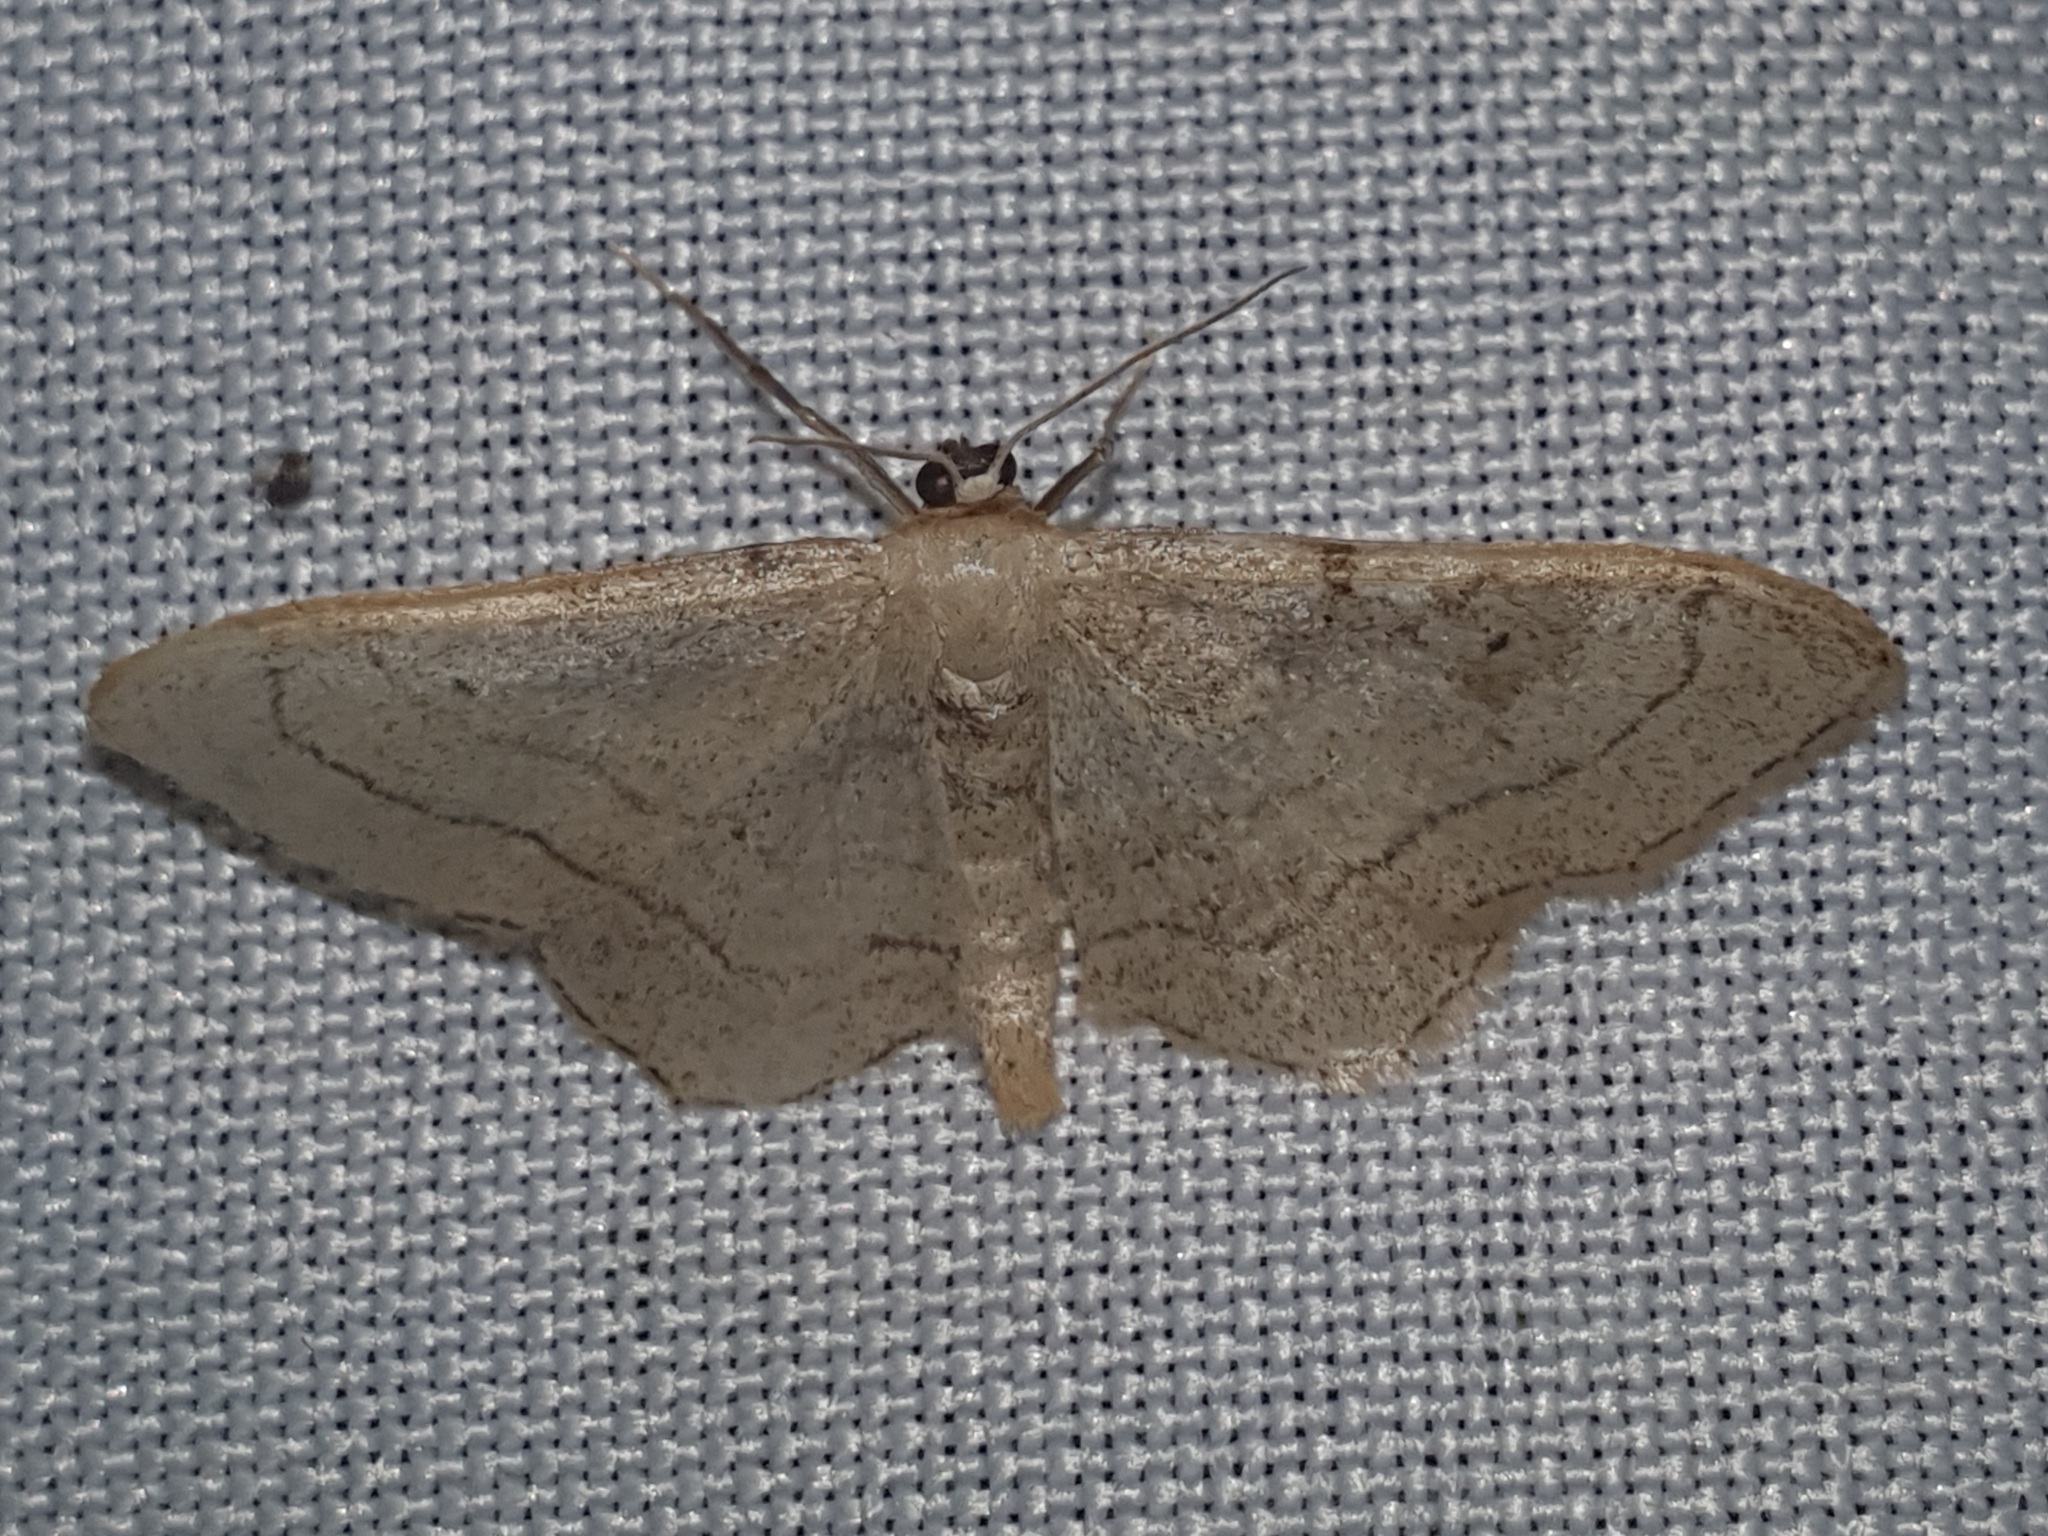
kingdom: Animalia
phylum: Arthropoda
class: Insecta
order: Lepidoptera
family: Geometridae
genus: Idaea
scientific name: Idaea aversata
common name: Riband wave
